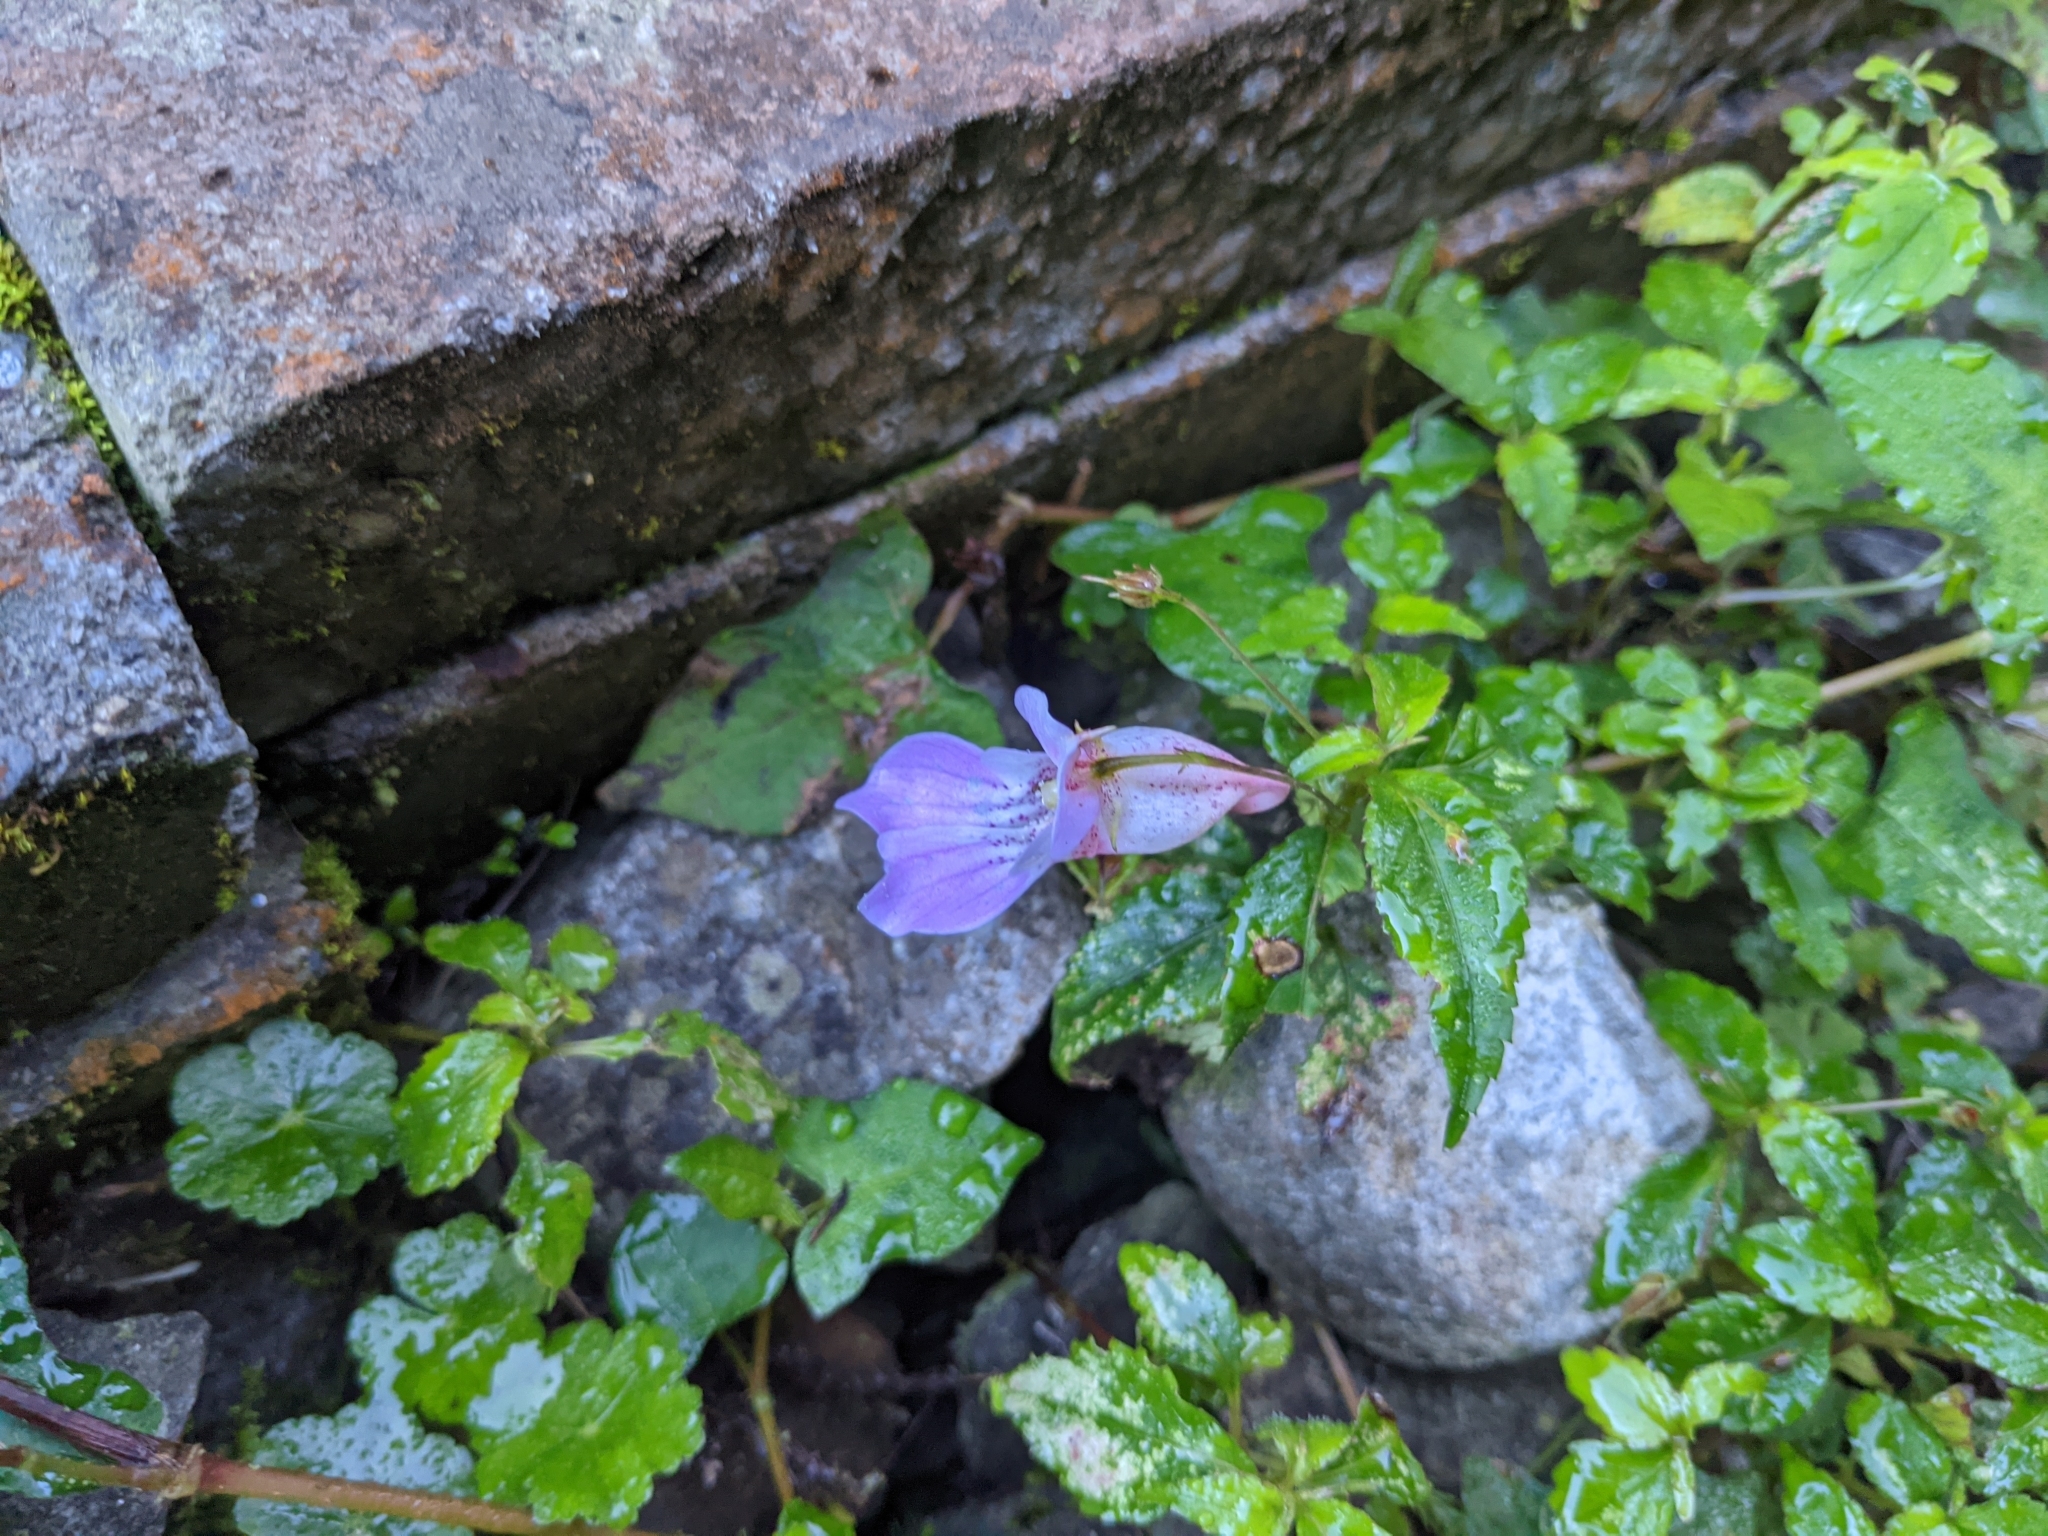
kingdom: Plantae
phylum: Tracheophyta
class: Magnoliopsida
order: Ericales
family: Balsaminaceae
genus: Impatiens
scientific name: Impatiens uniflora
